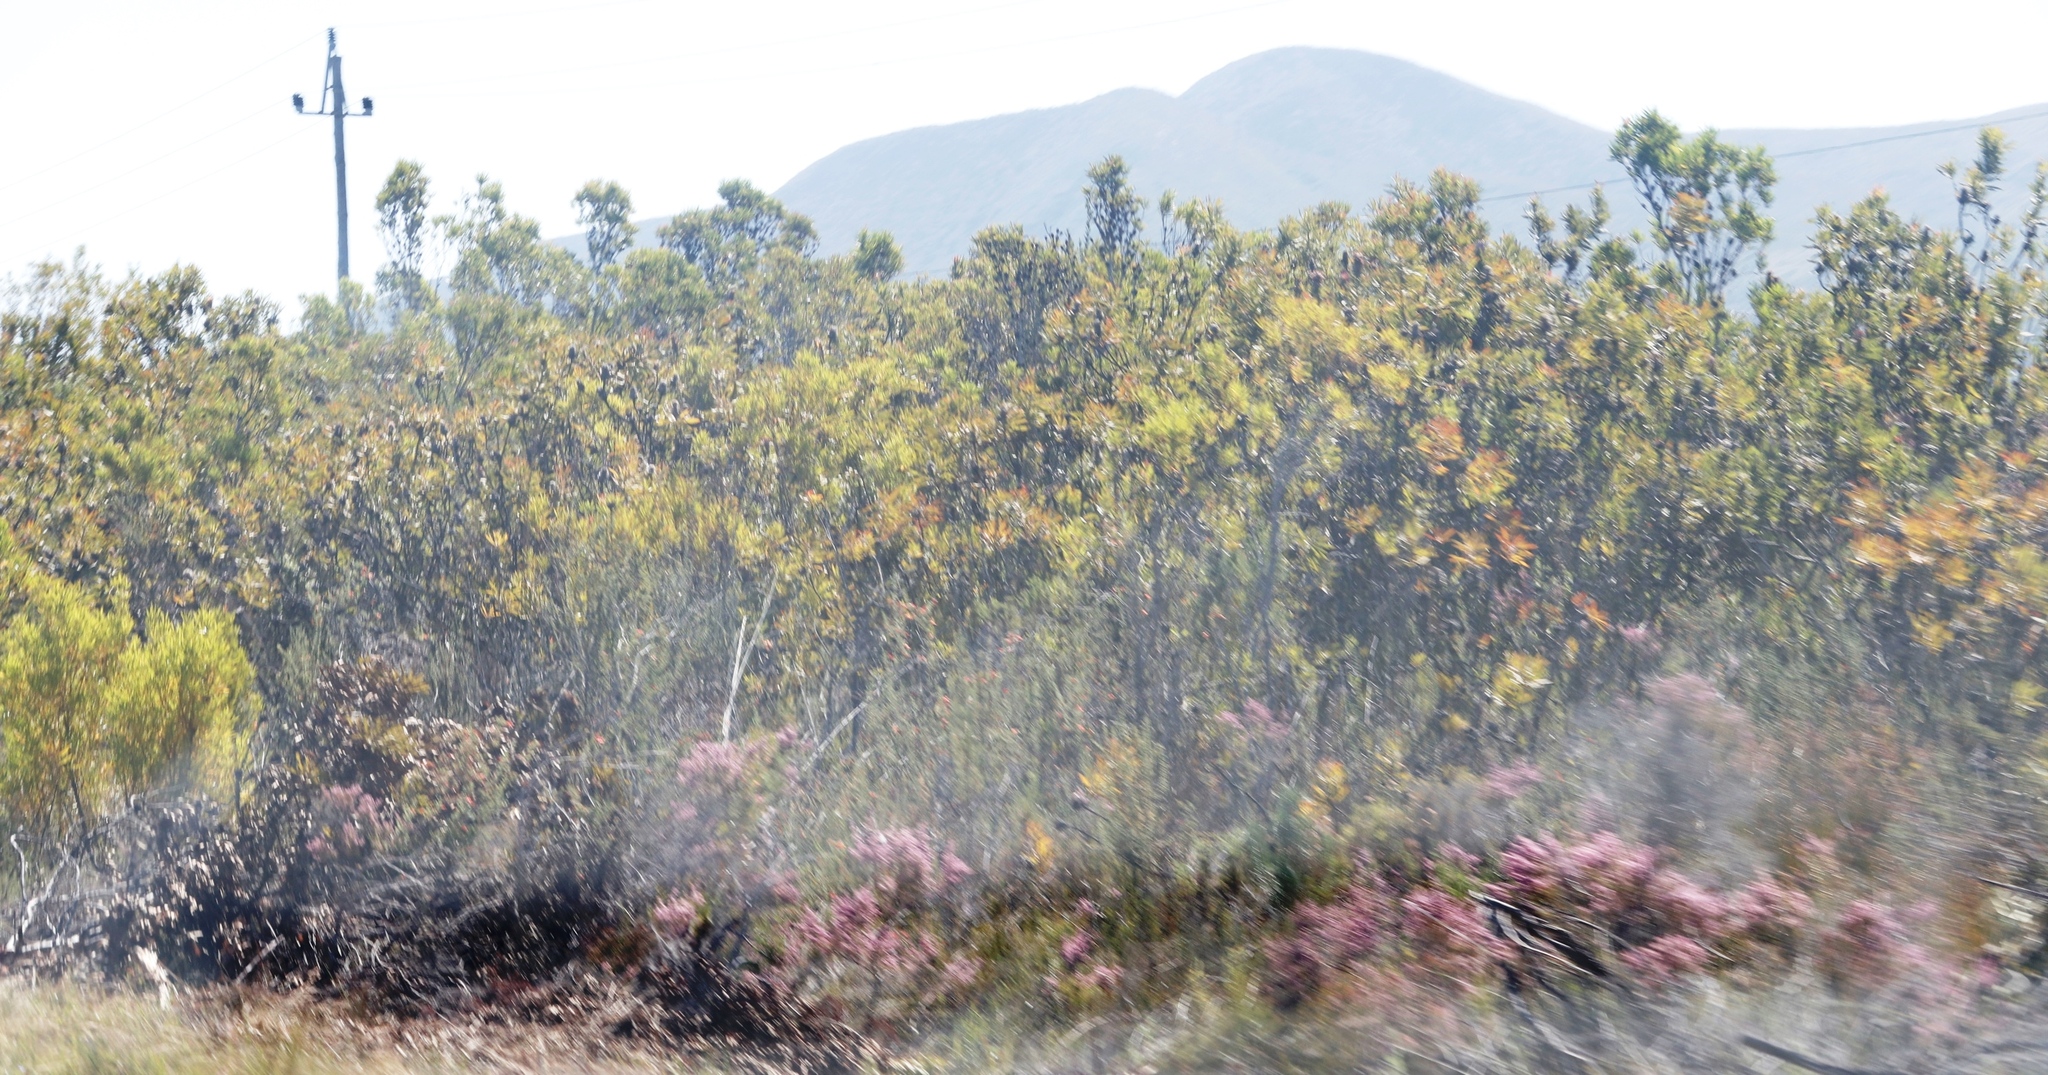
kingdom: Plantae
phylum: Tracheophyta
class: Magnoliopsida
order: Proteales
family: Proteaceae
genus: Protea
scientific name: Protea neriifolia
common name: Blue sugarbush
